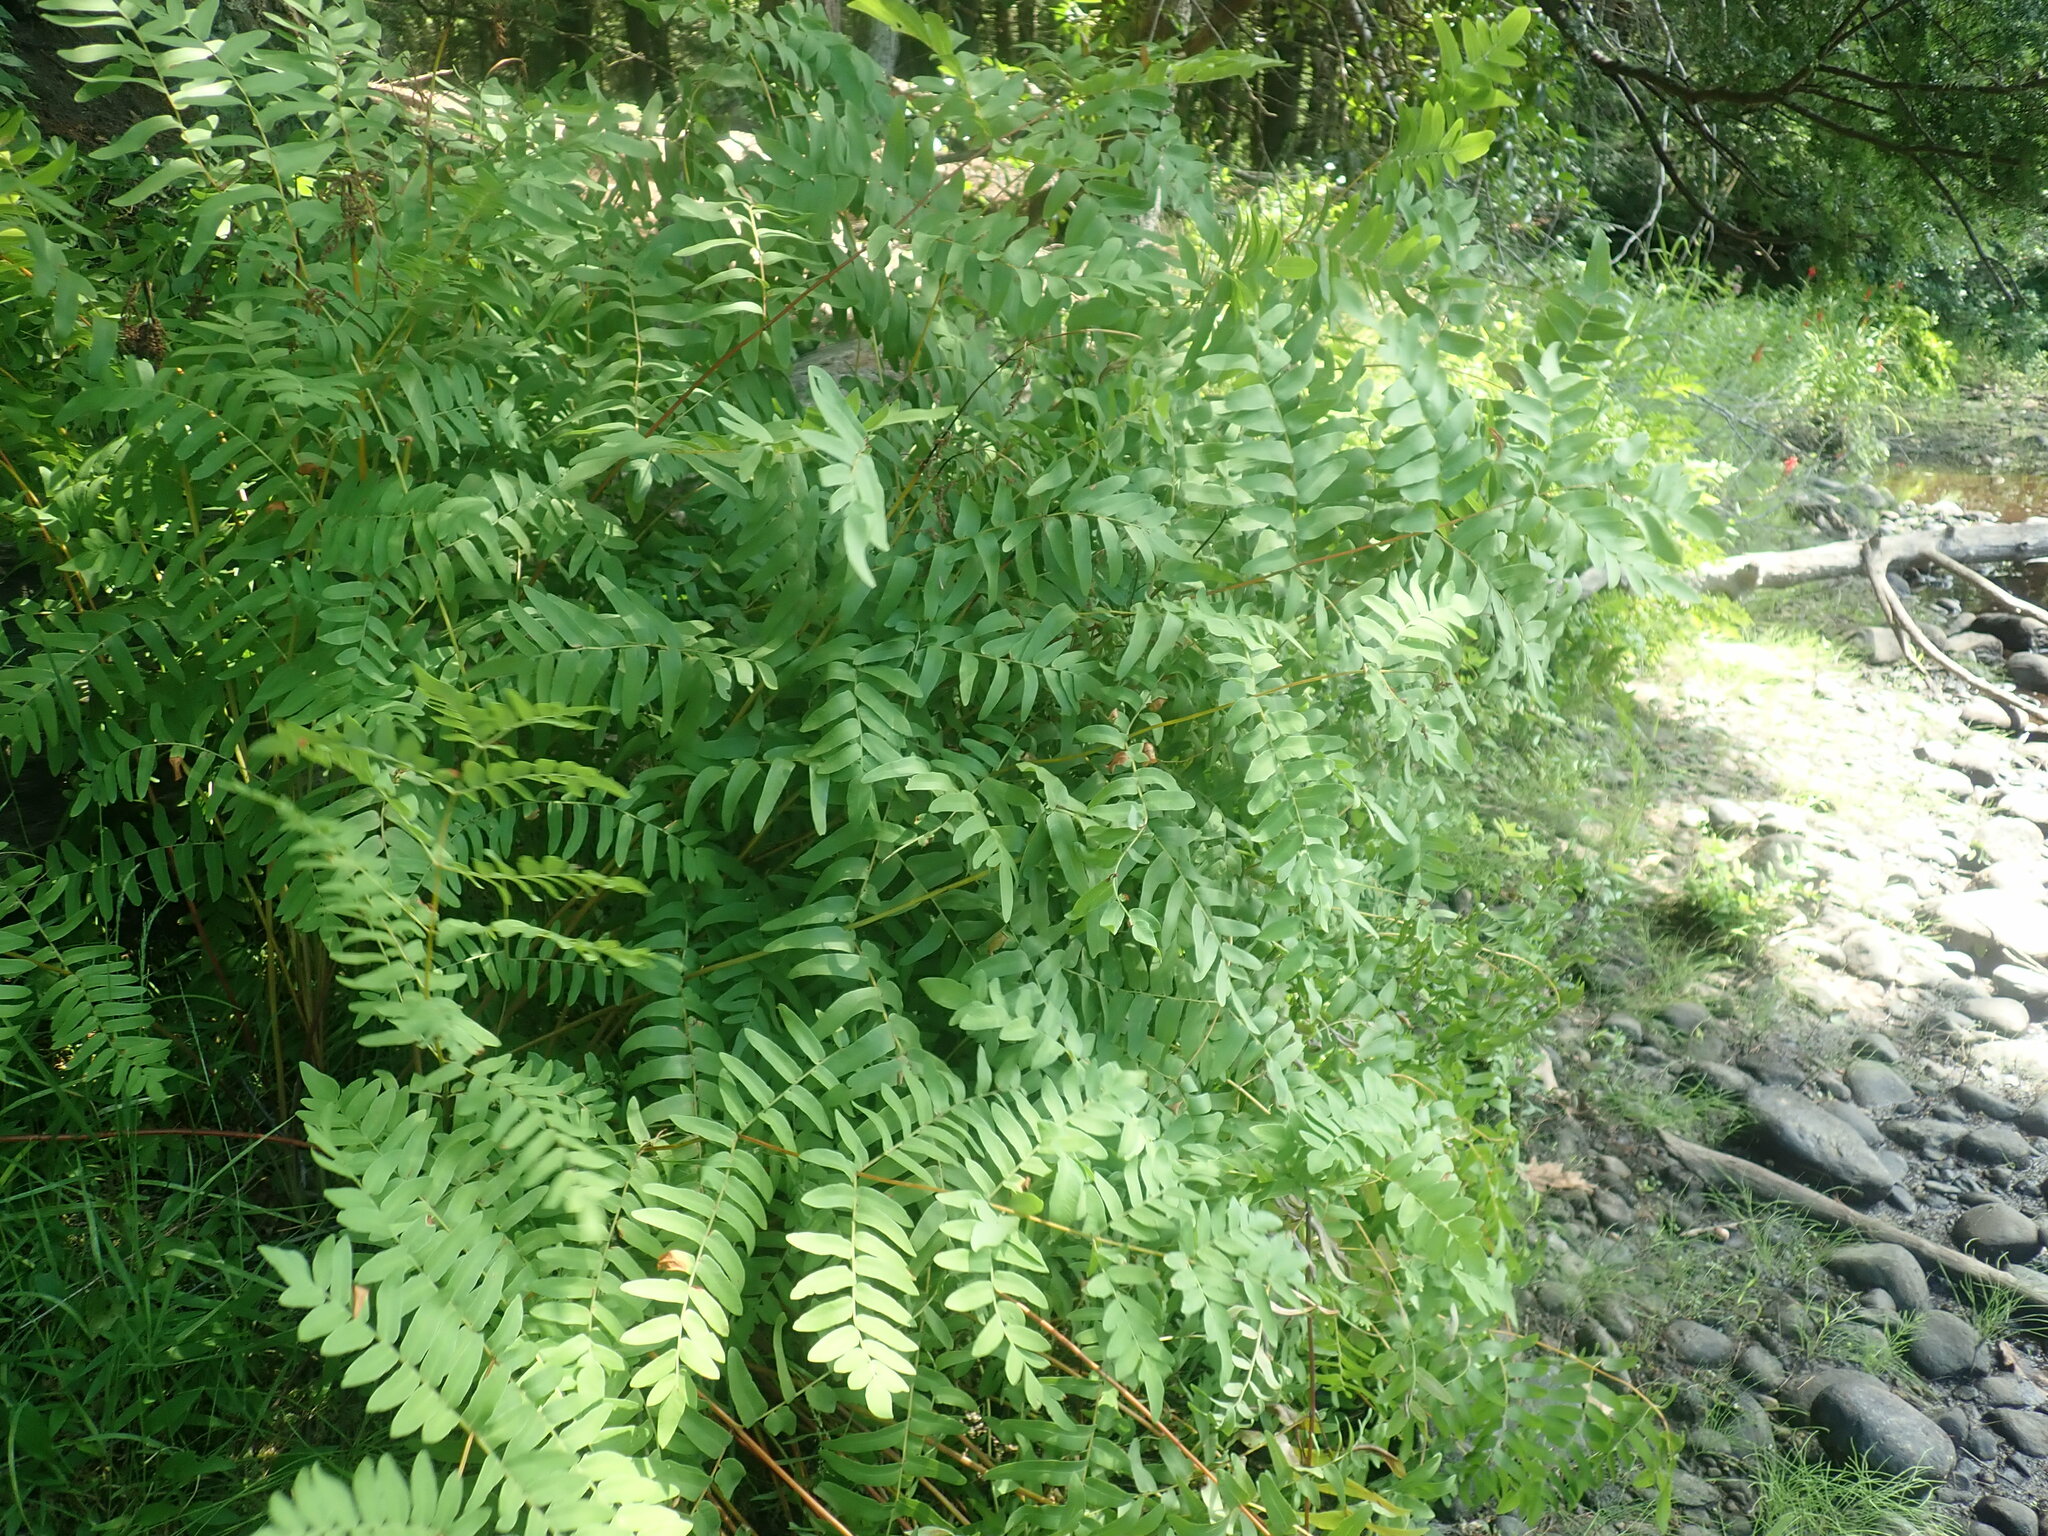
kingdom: Plantae
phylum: Tracheophyta
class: Polypodiopsida
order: Osmundales
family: Osmundaceae
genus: Osmunda
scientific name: Osmunda spectabilis
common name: American royal fern
